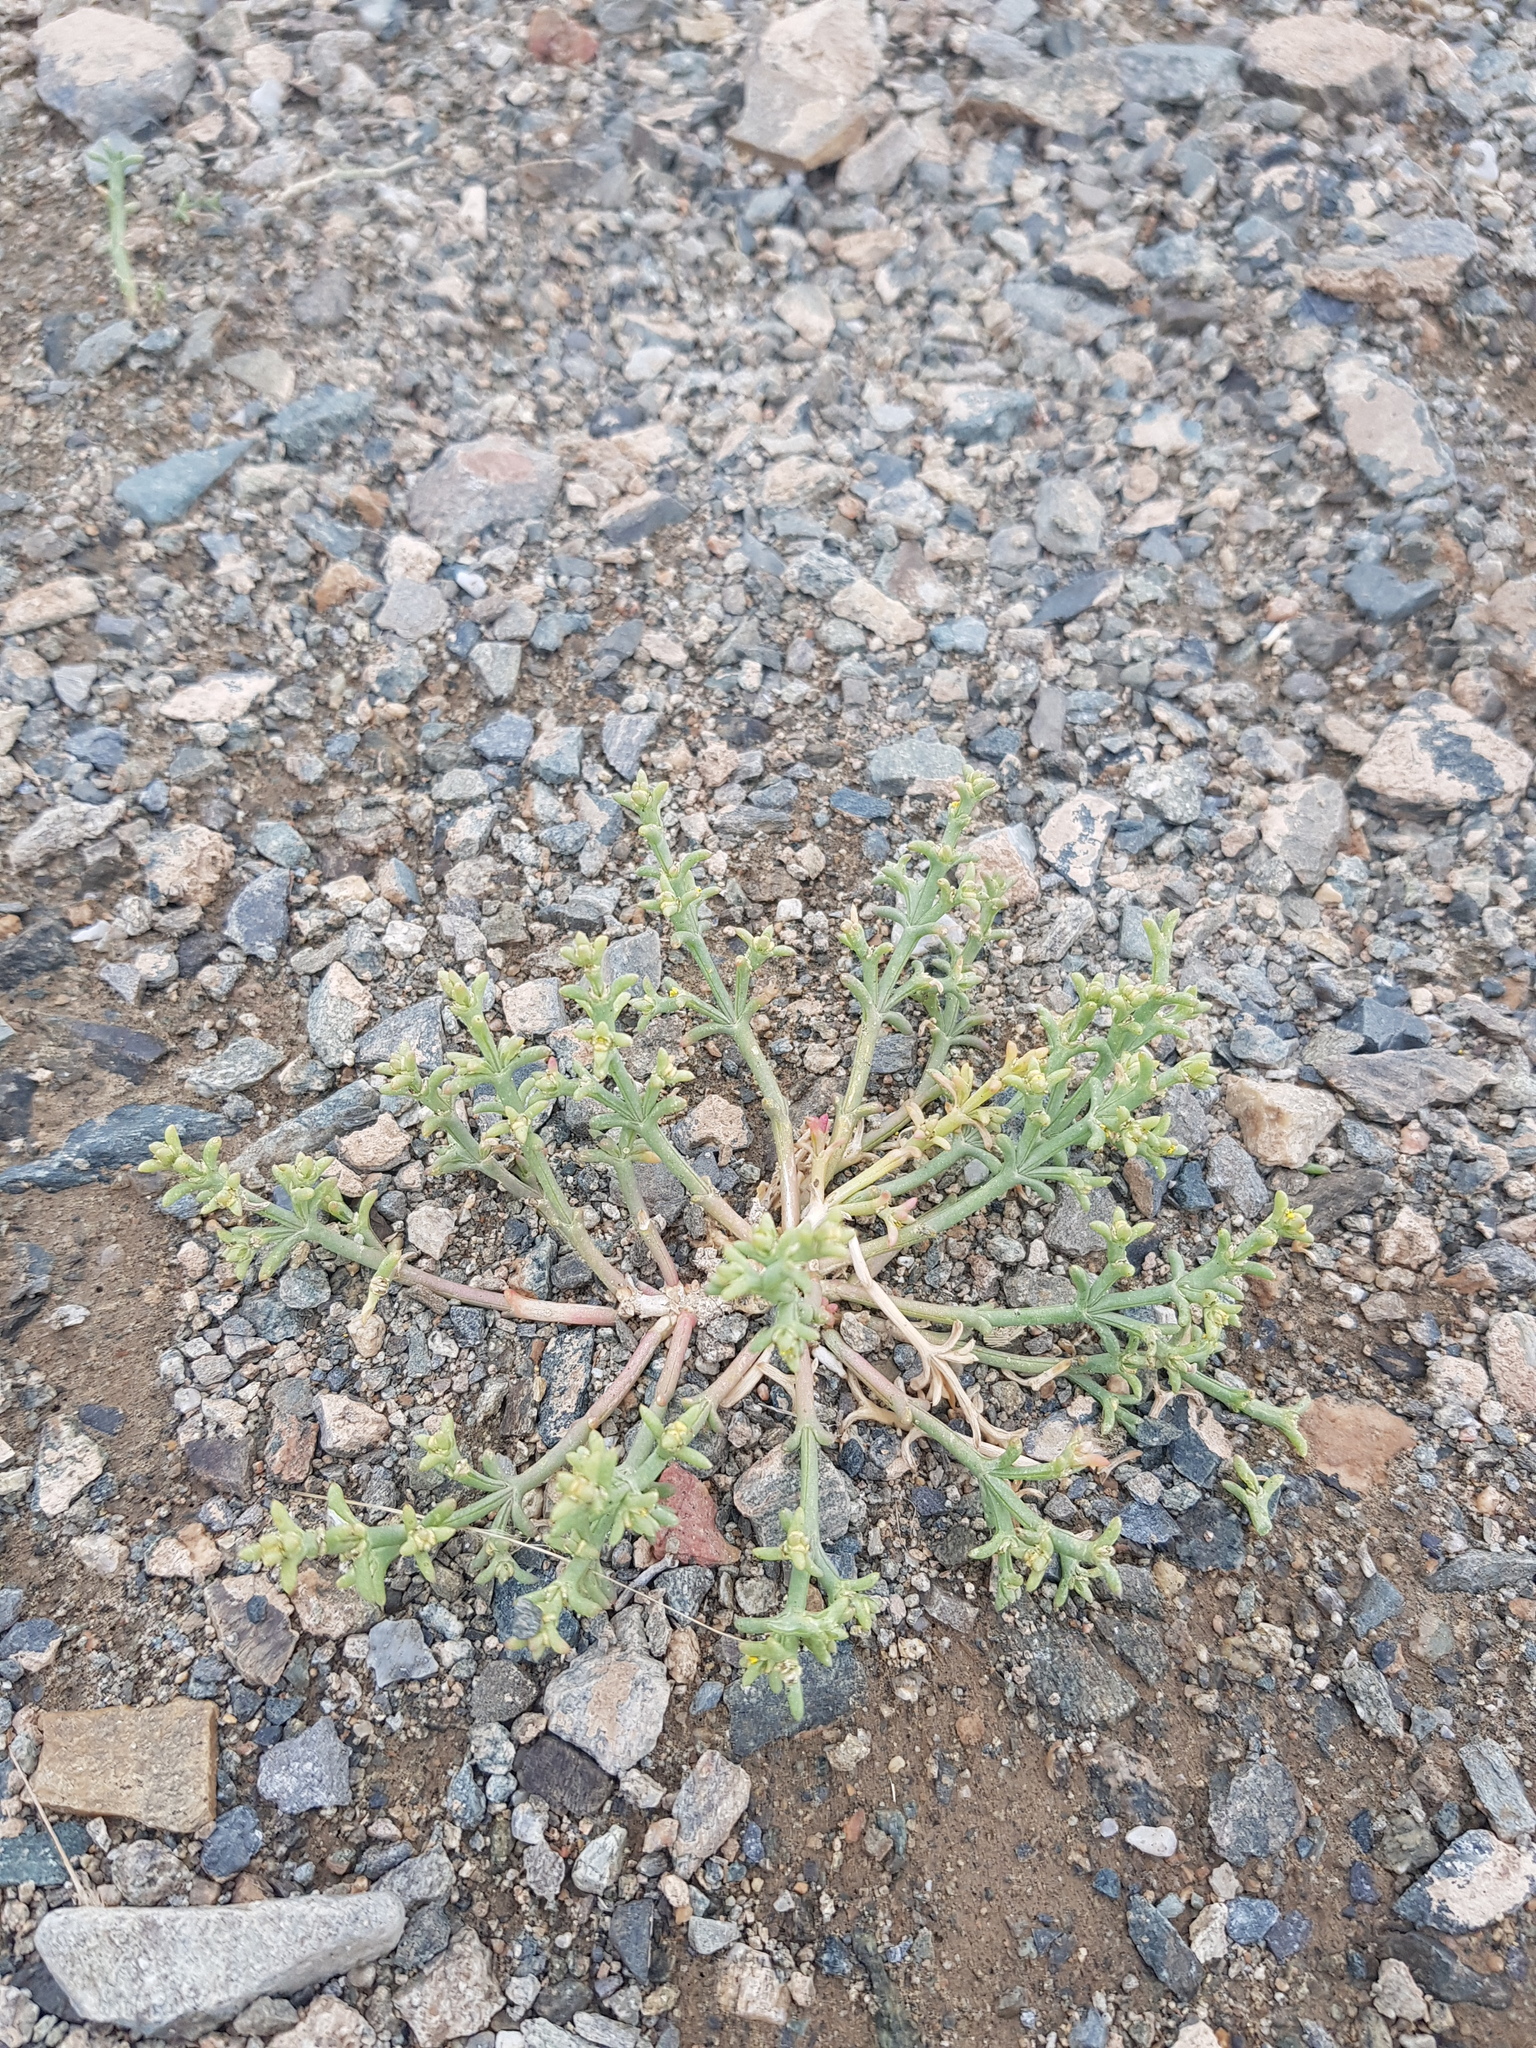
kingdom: Plantae
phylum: Tracheophyta
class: Magnoliopsida
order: Caryophyllales
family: Amaranthaceae
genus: Anabasis
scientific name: Anabasis brevifolia
